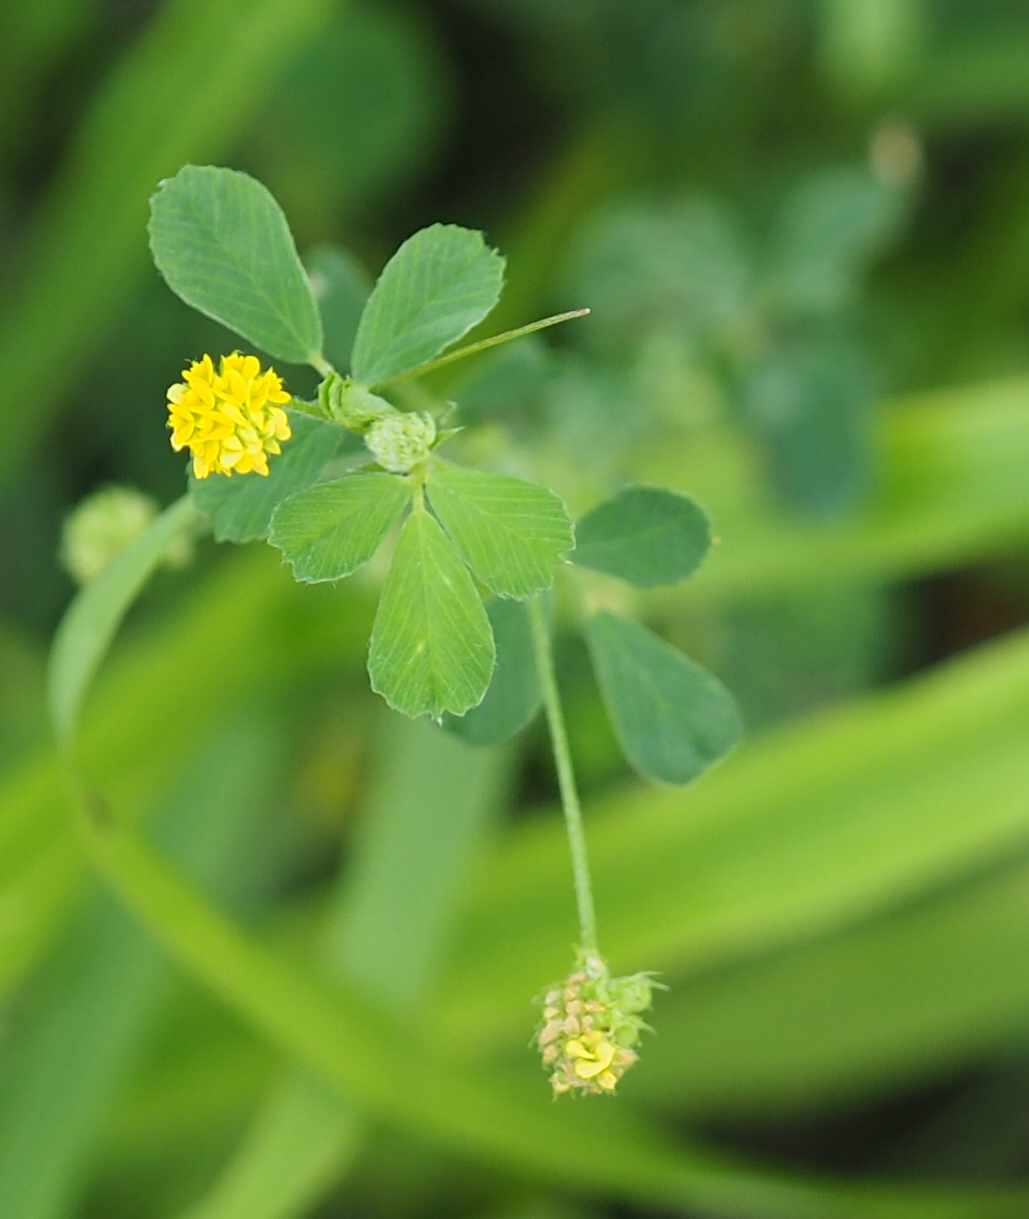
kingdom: Plantae
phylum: Tracheophyta
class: Magnoliopsida
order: Fabales
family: Fabaceae
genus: Medicago
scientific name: Medicago lupulina
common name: Black medick
